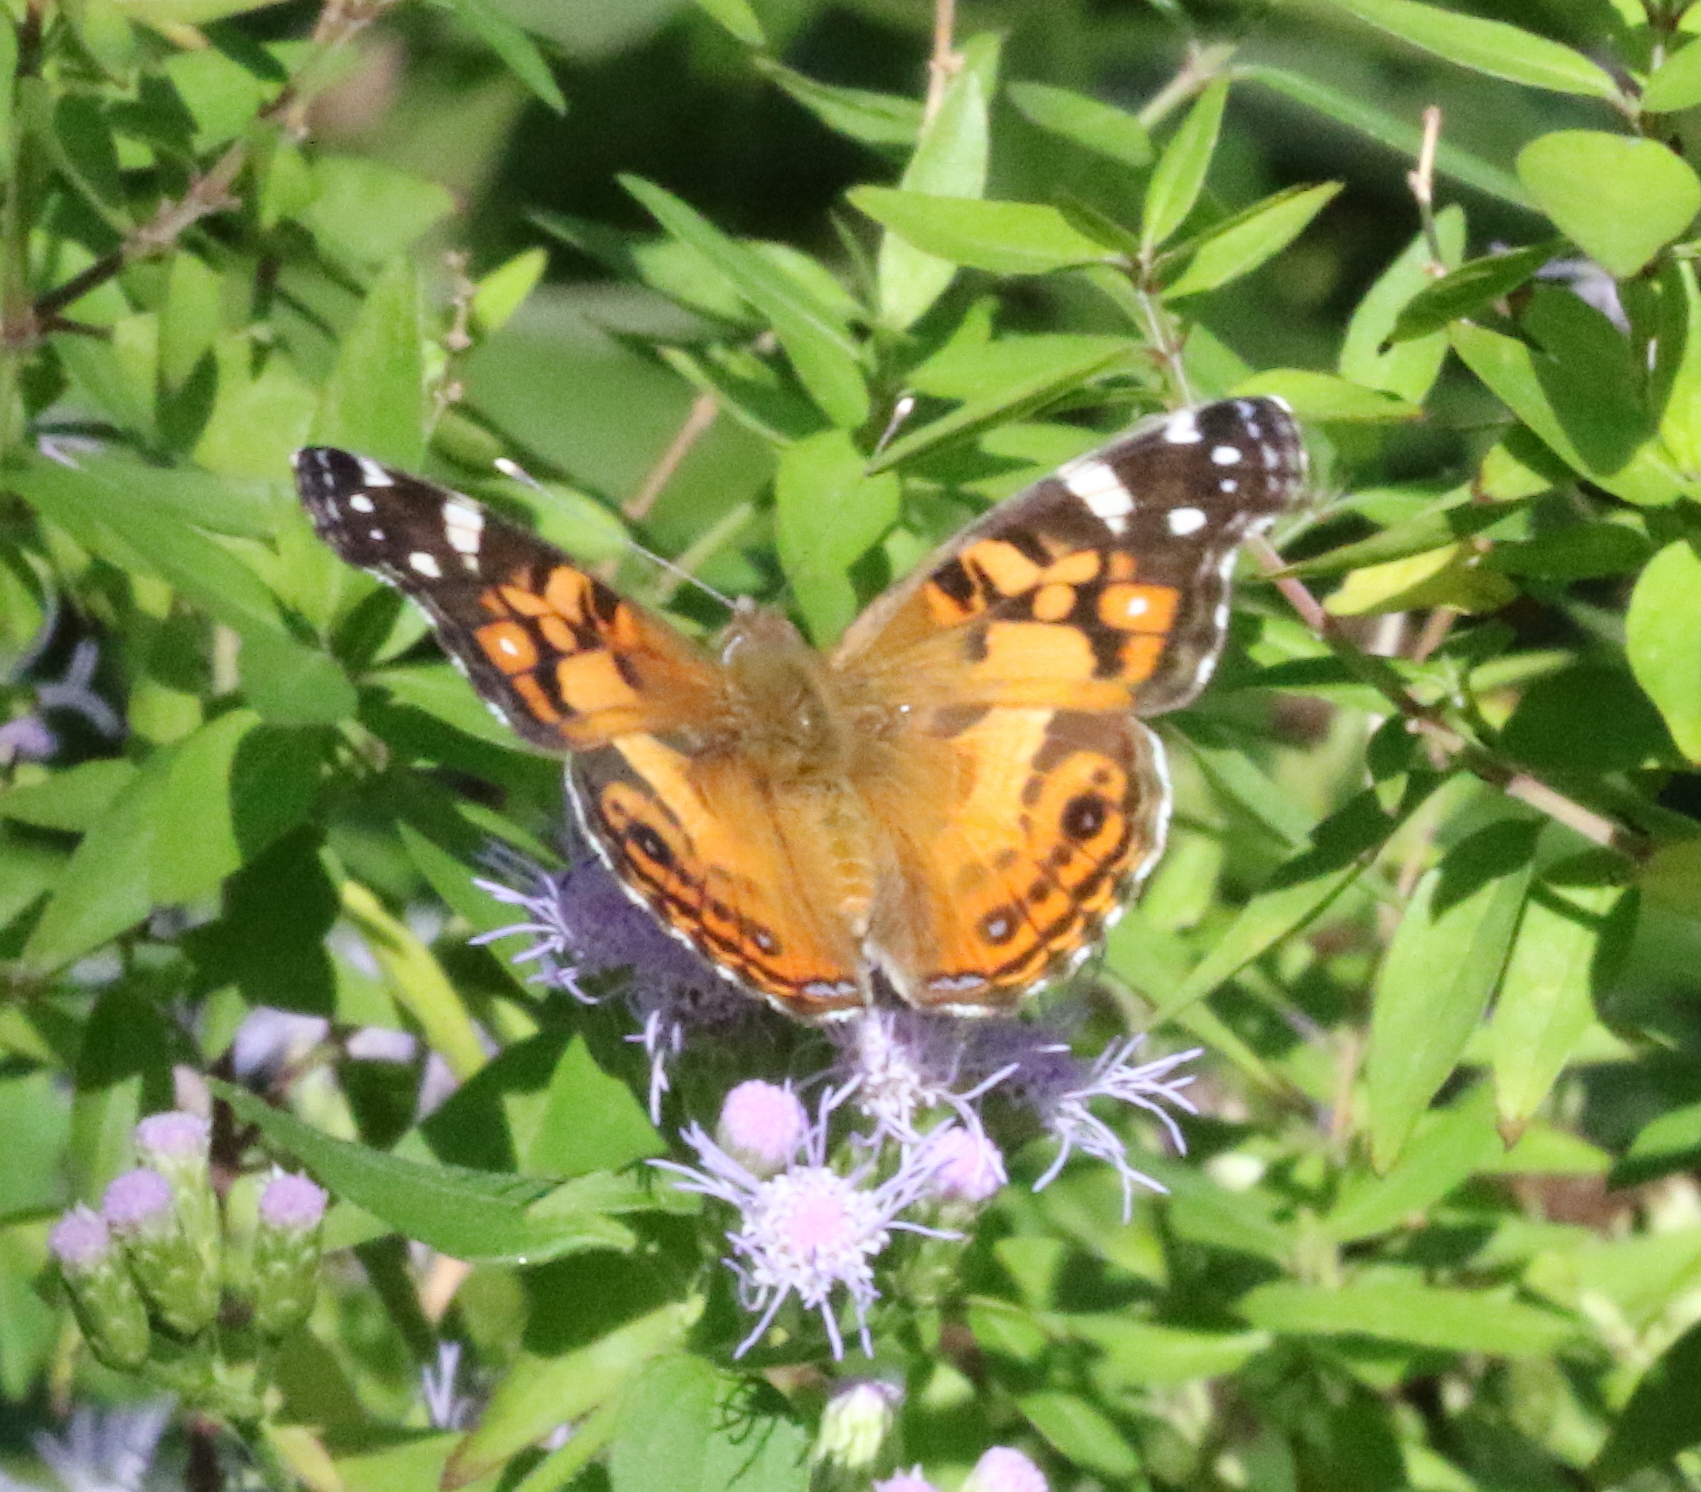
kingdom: Animalia
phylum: Arthropoda
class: Insecta
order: Lepidoptera
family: Nymphalidae
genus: Vanessa
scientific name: Vanessa virginiensis
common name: American lady
